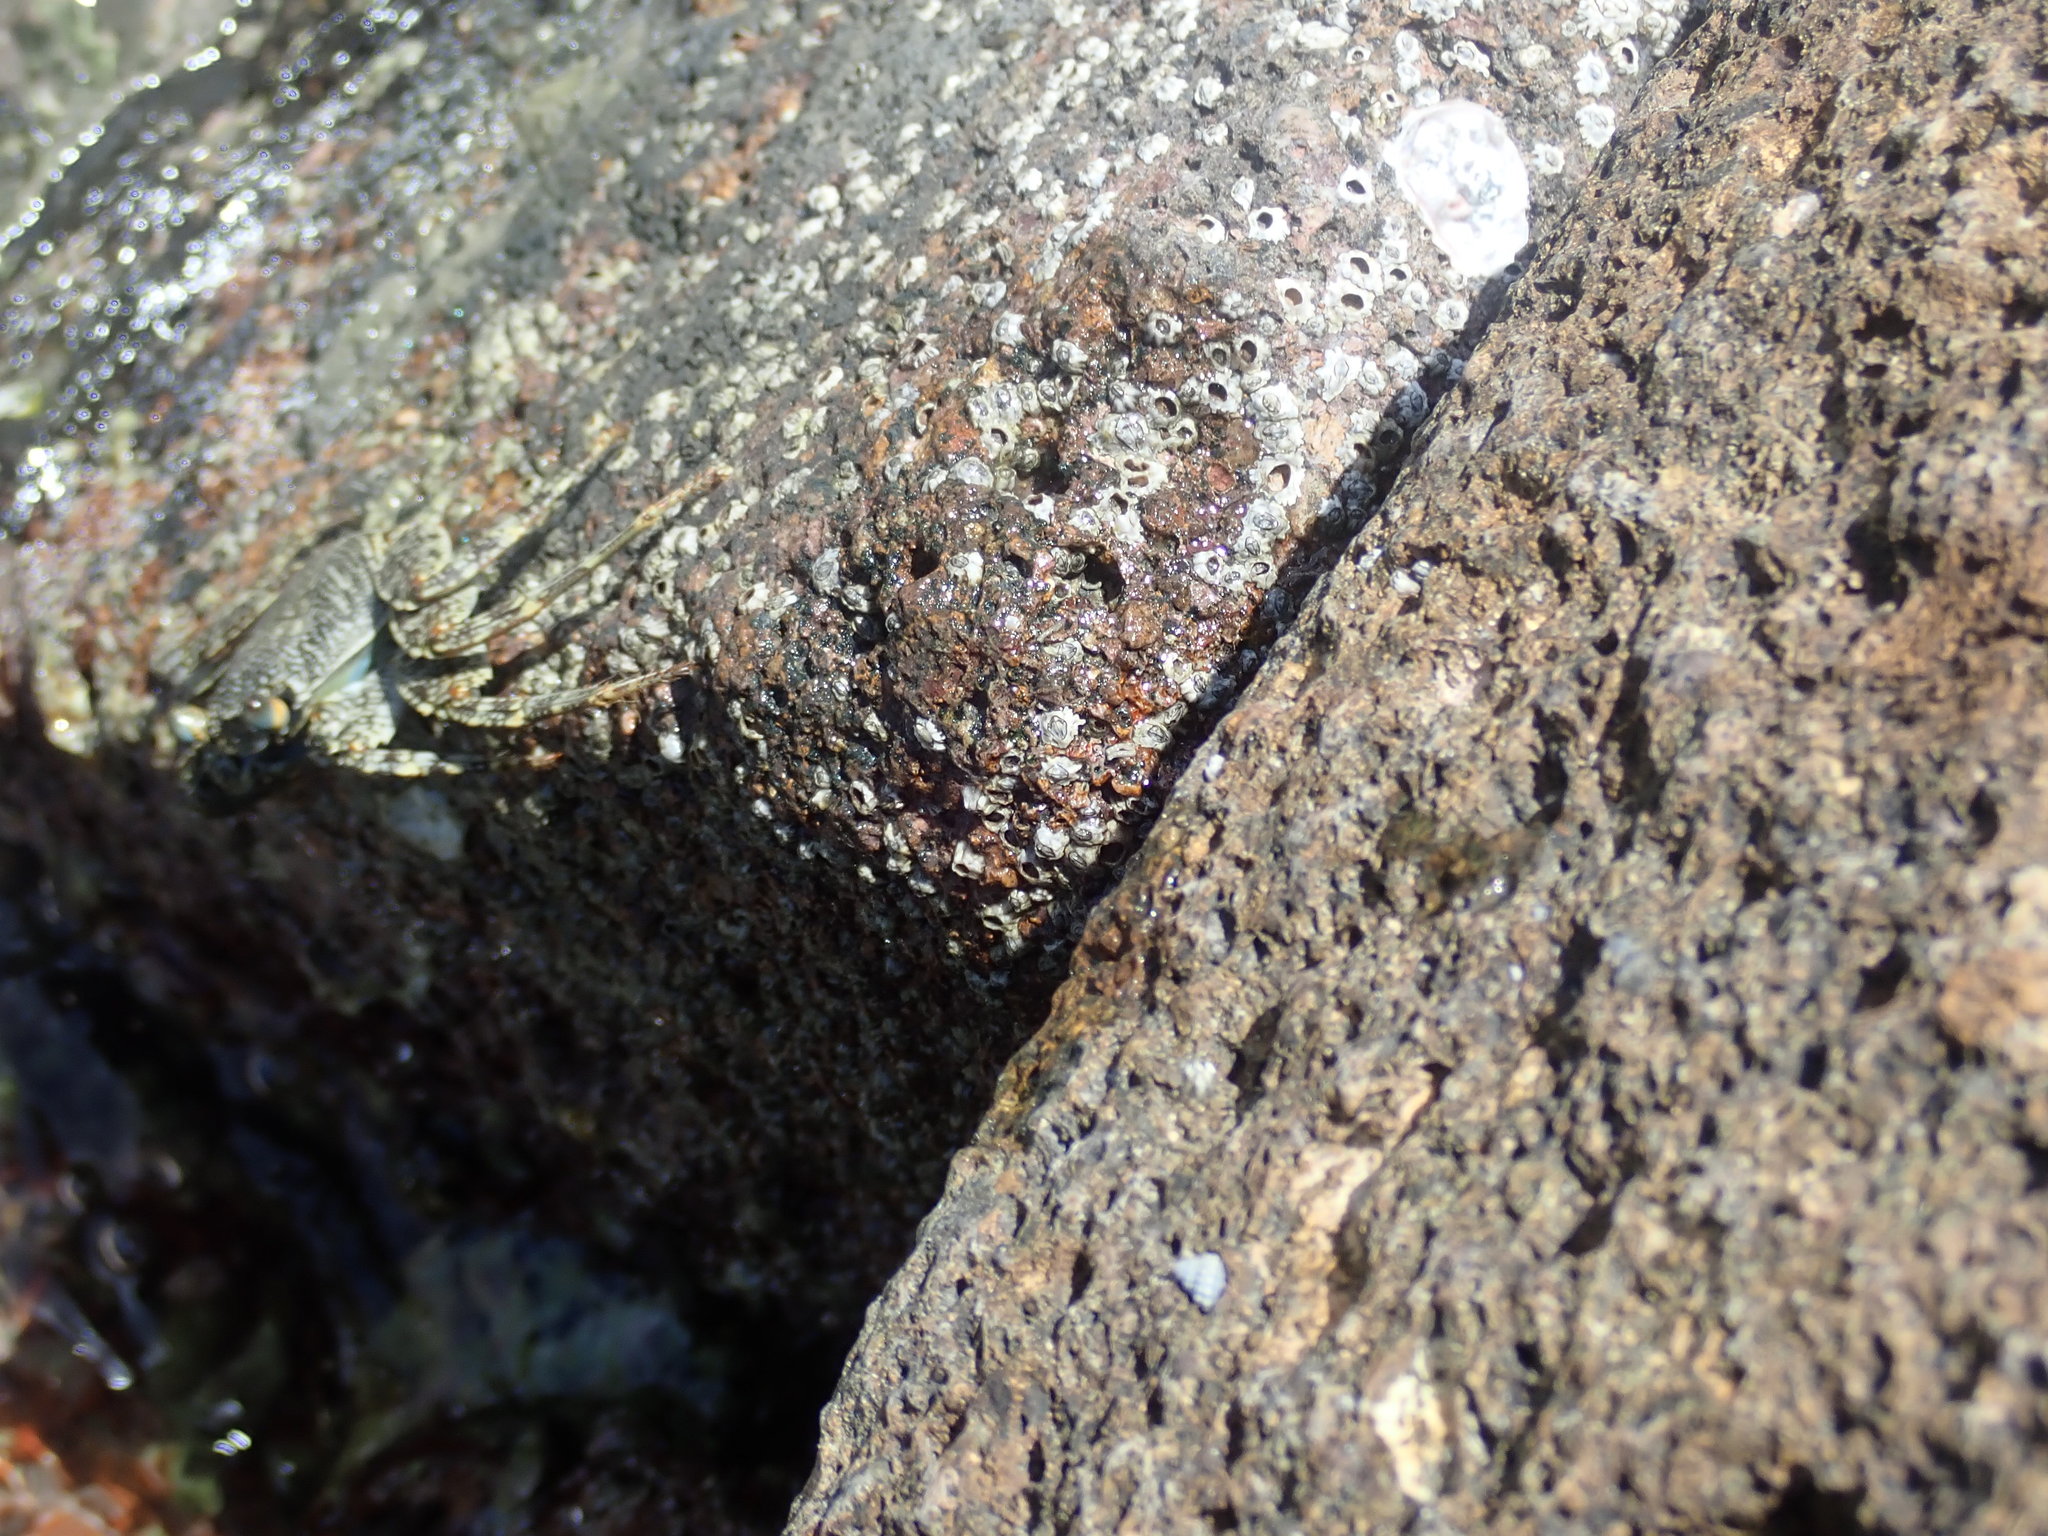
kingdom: Animalia
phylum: Arthropoda
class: Malacostraca
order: Decapoda
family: Grapsidae
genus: Grapsus
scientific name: Grapsus grapsus
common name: Sally lightfoot
